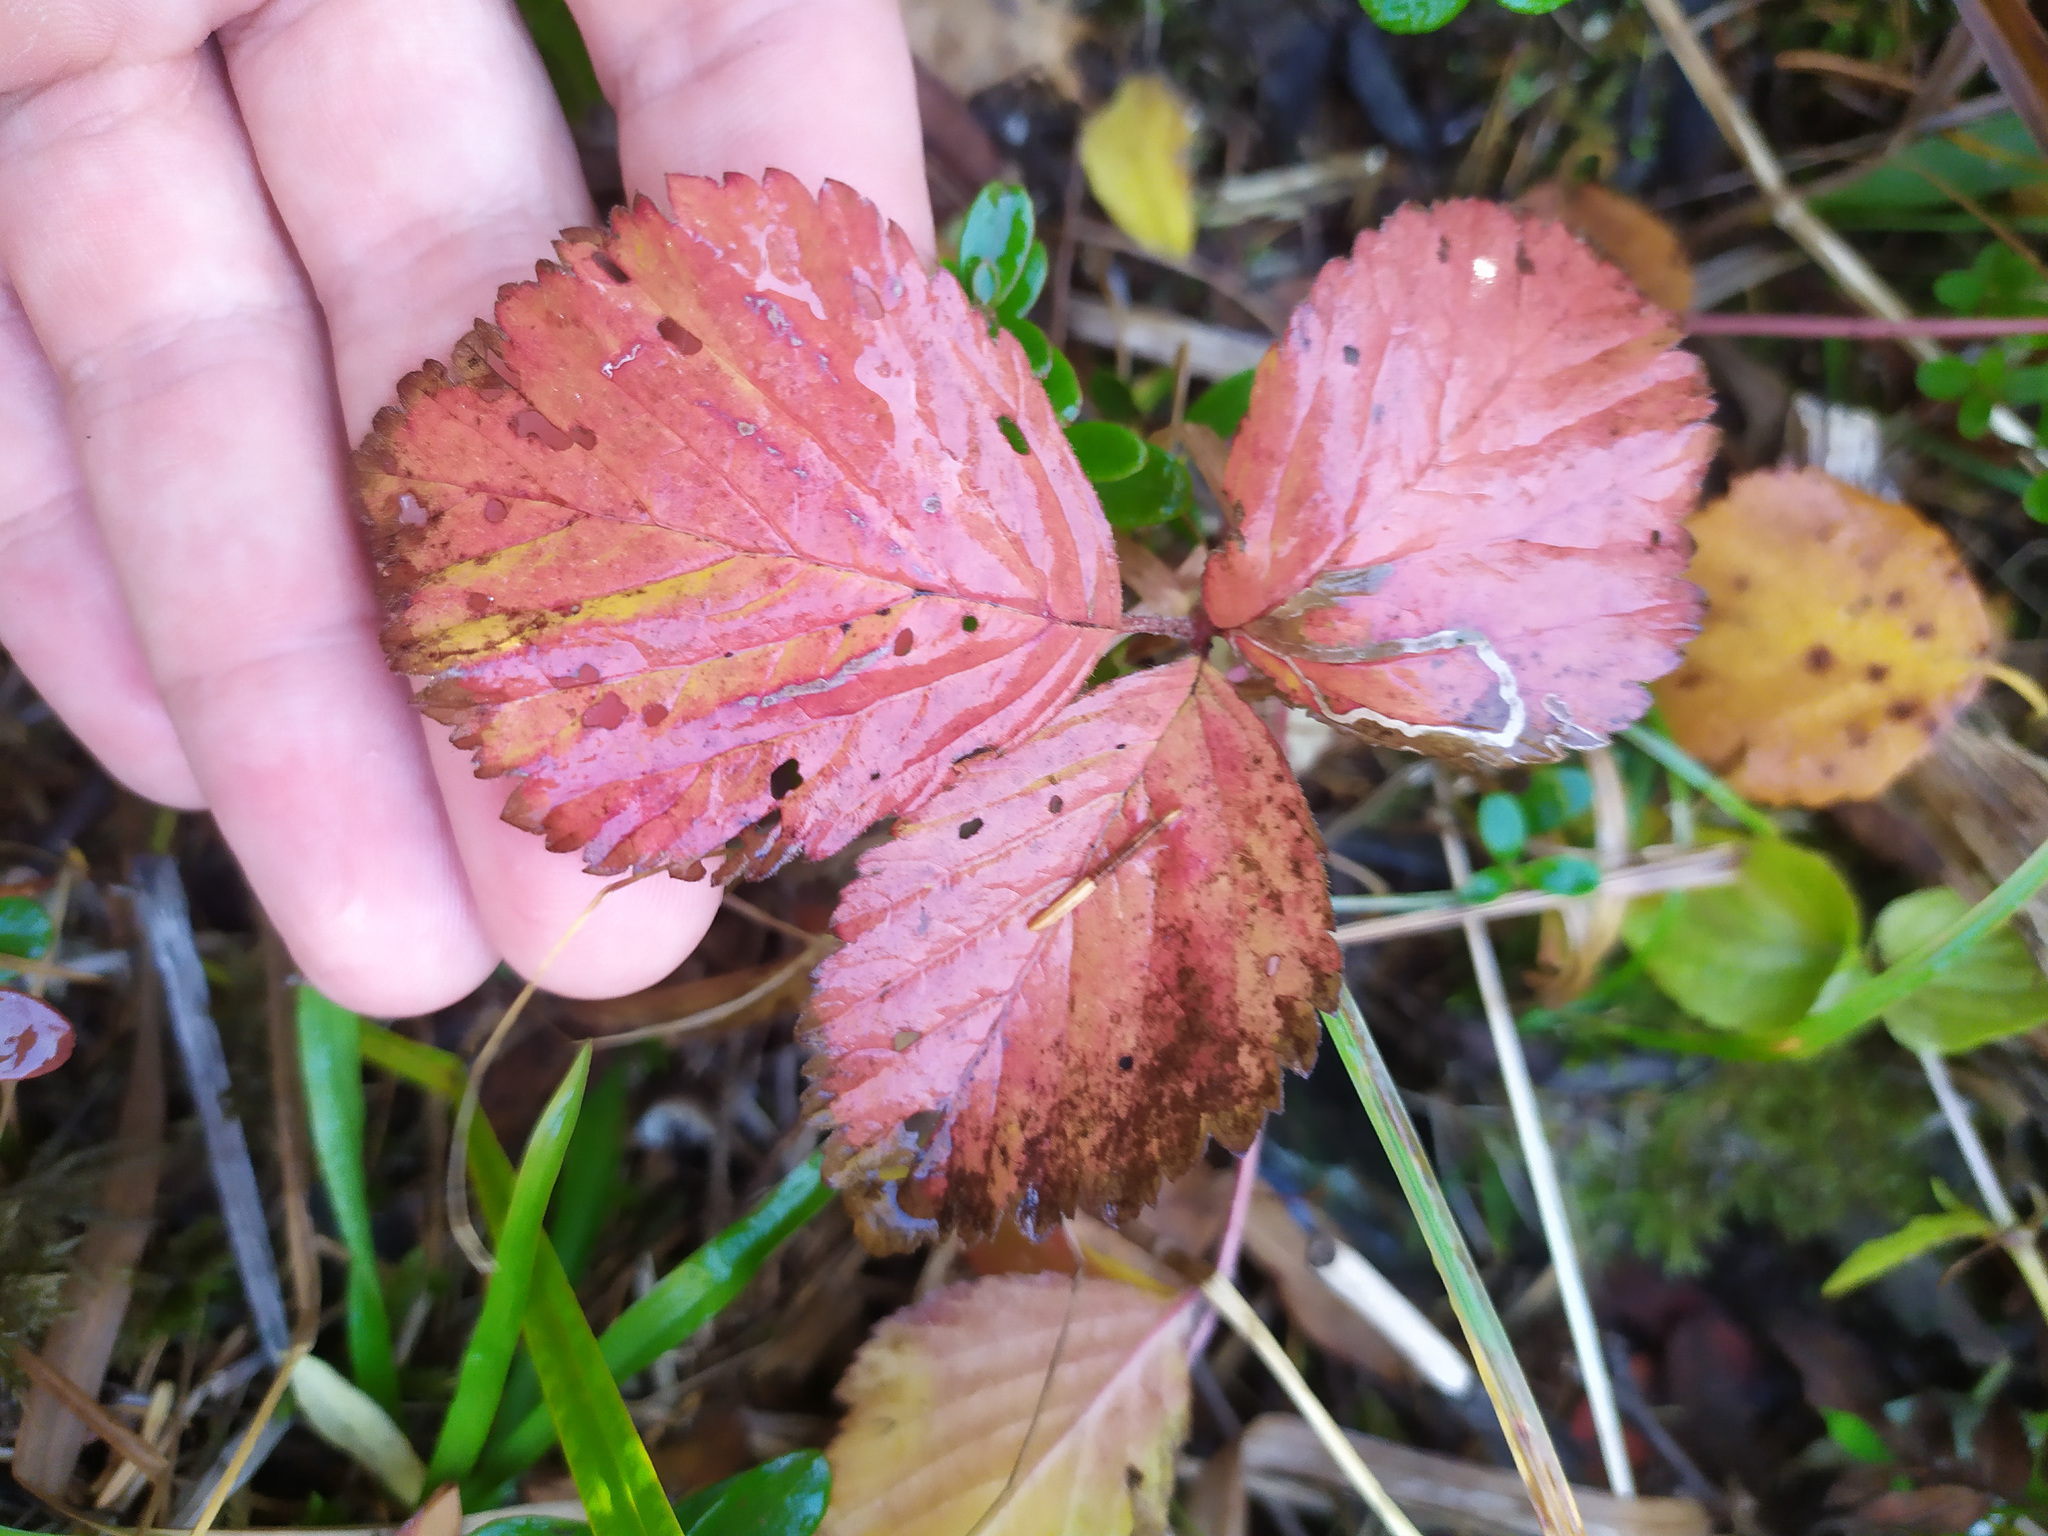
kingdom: Plantae
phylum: Tracheophyta
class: Magnoliopsida
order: Rosales
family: Rosaceae
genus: Rubus
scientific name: Rubus saxatilis
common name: Stone bramble
